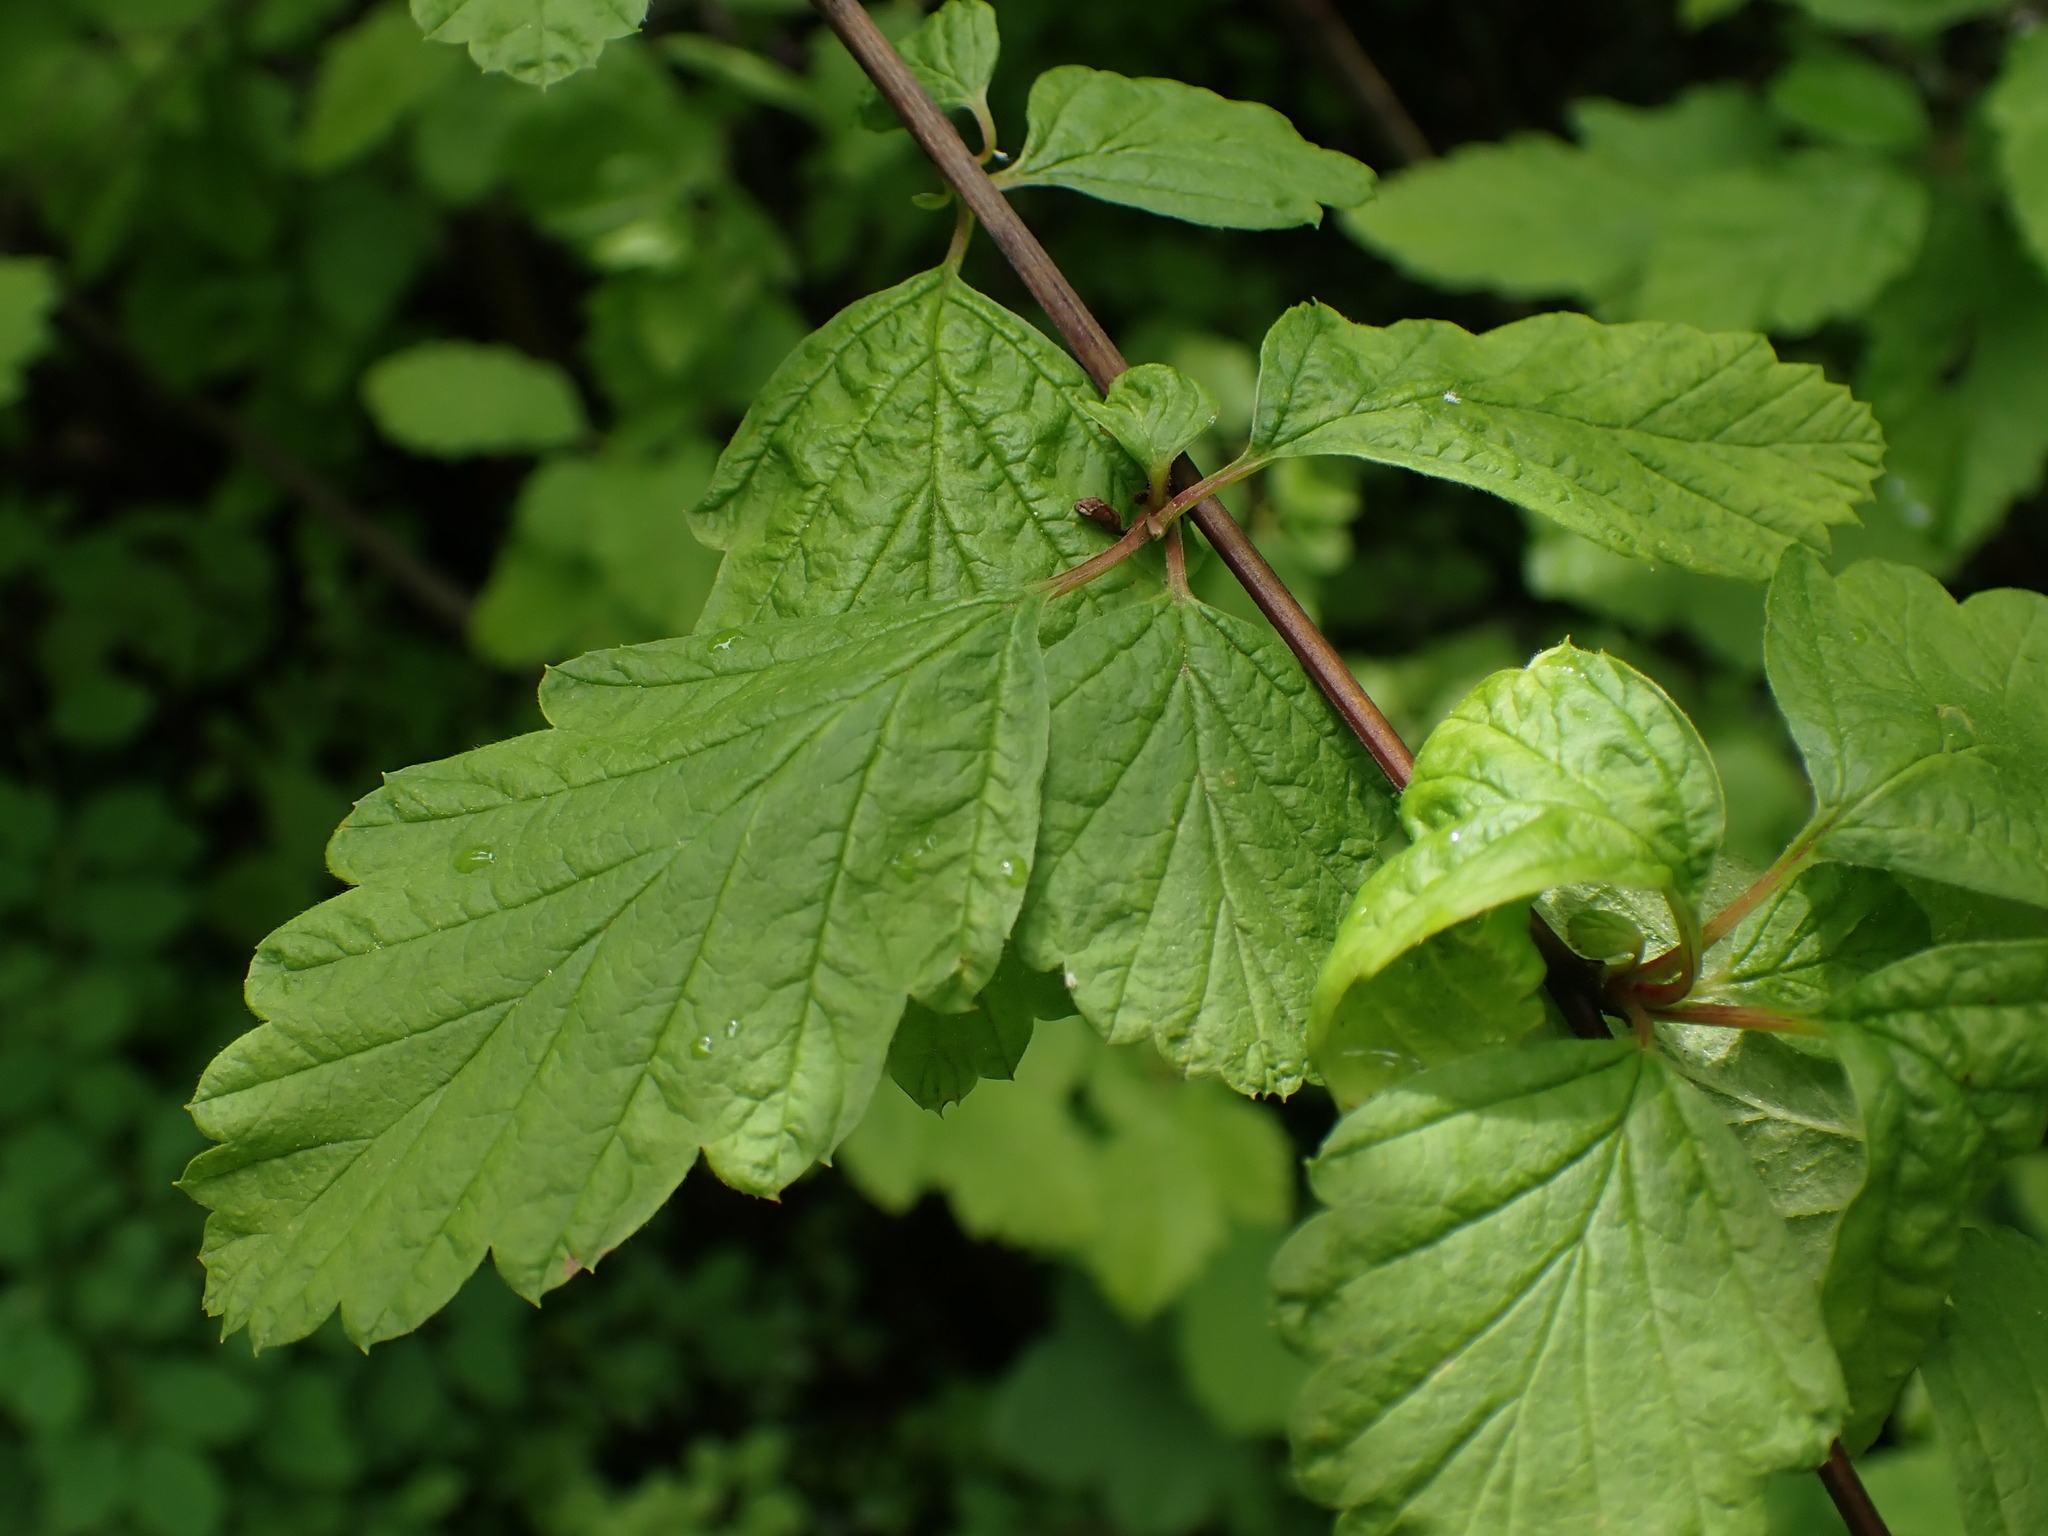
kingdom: Plantae
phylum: Tracheophyta
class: Magnoliopsida
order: Rosales
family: Rosaceae
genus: Holodiscus
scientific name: Holodiscus discolor
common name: Oceanspray
